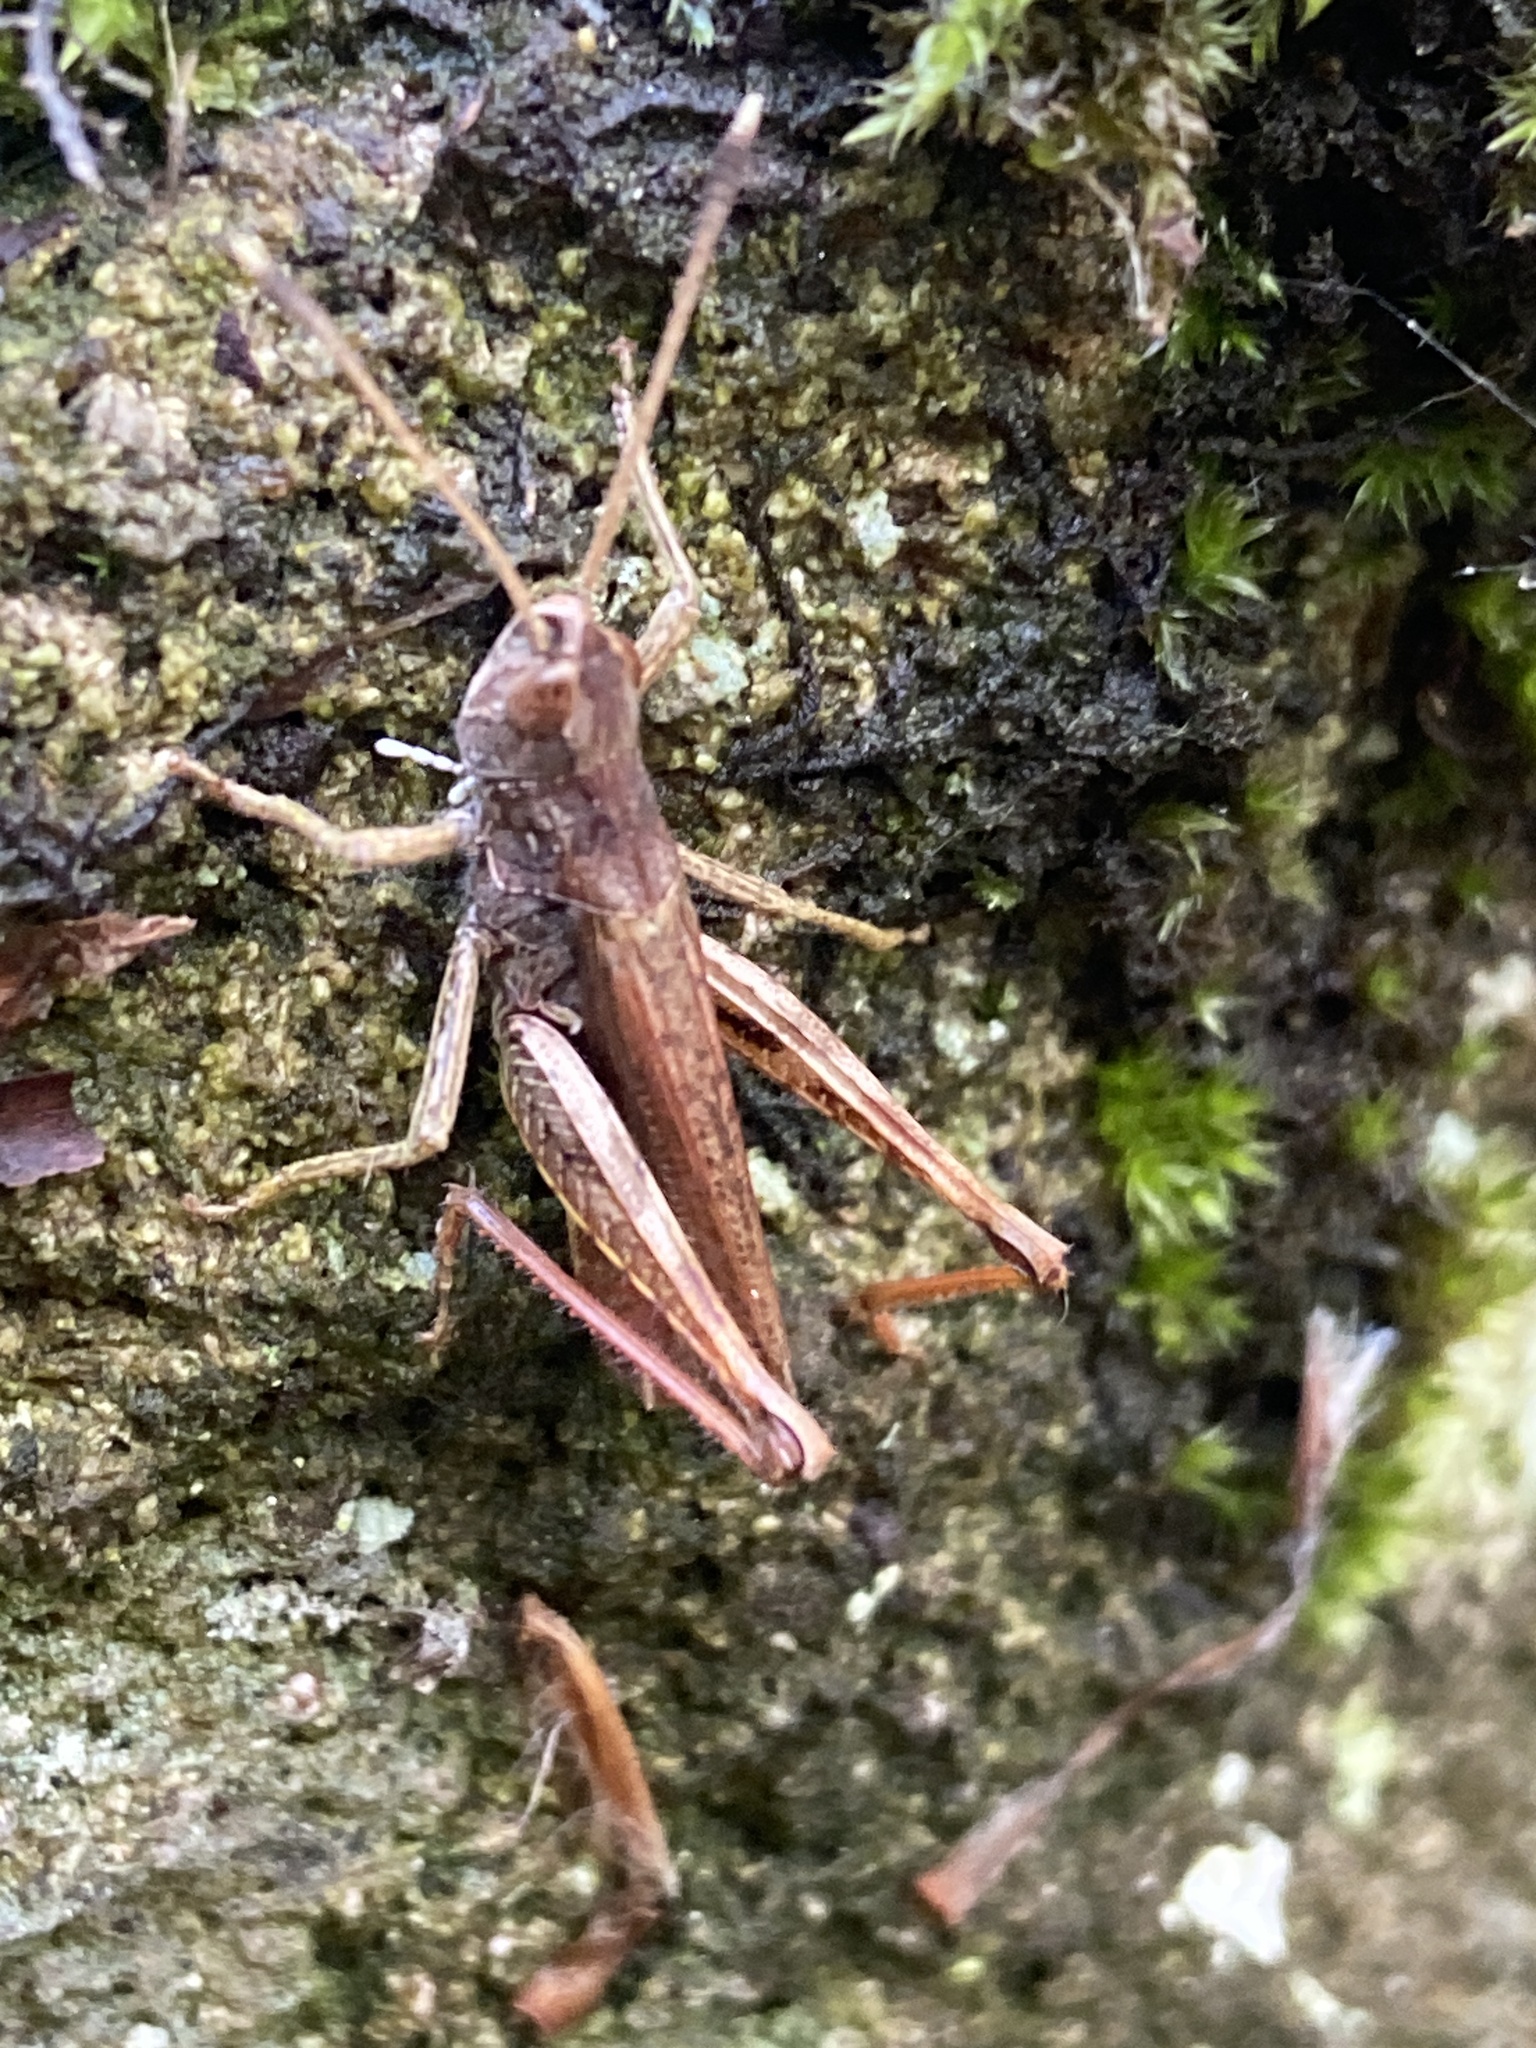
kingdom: Animalia
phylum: Arthropoda
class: Insecta
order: Orthoptera
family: Acrididae
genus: Gomphocerippus
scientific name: Gomphocerippus rufus
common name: Rufous grasshopper
